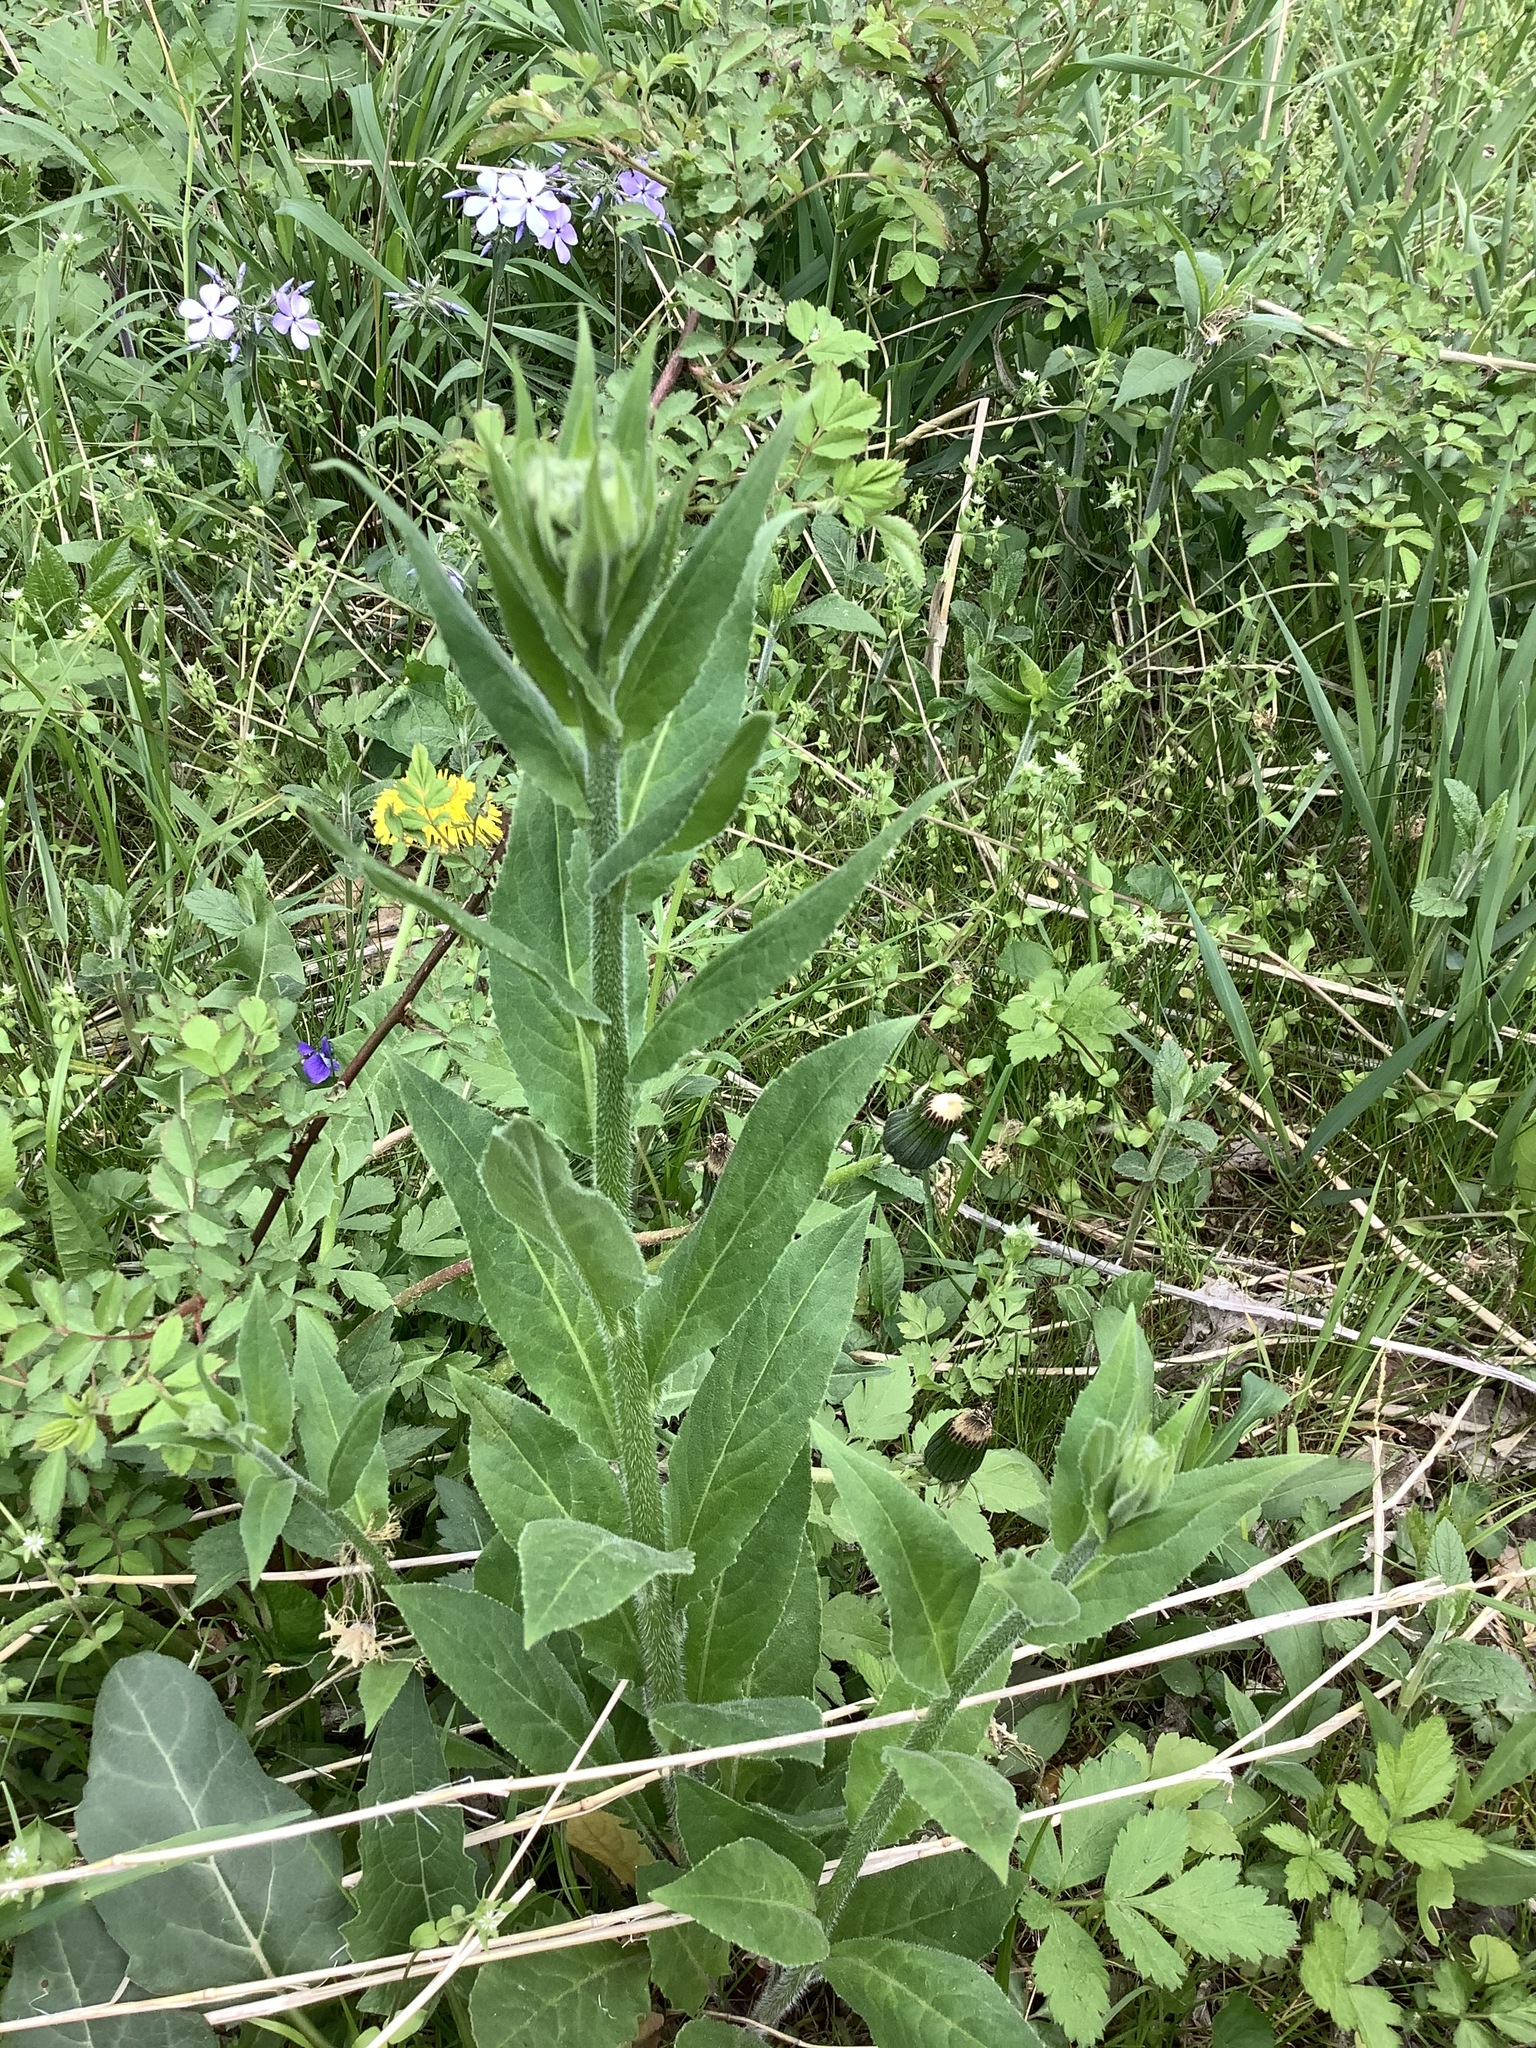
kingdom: Plantae
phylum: Tracheophyta
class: Magnoliopsida
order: Brassicales
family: Brassicaceae
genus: Hesperis
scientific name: Hesperis matronalis
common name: Dame's-violet
